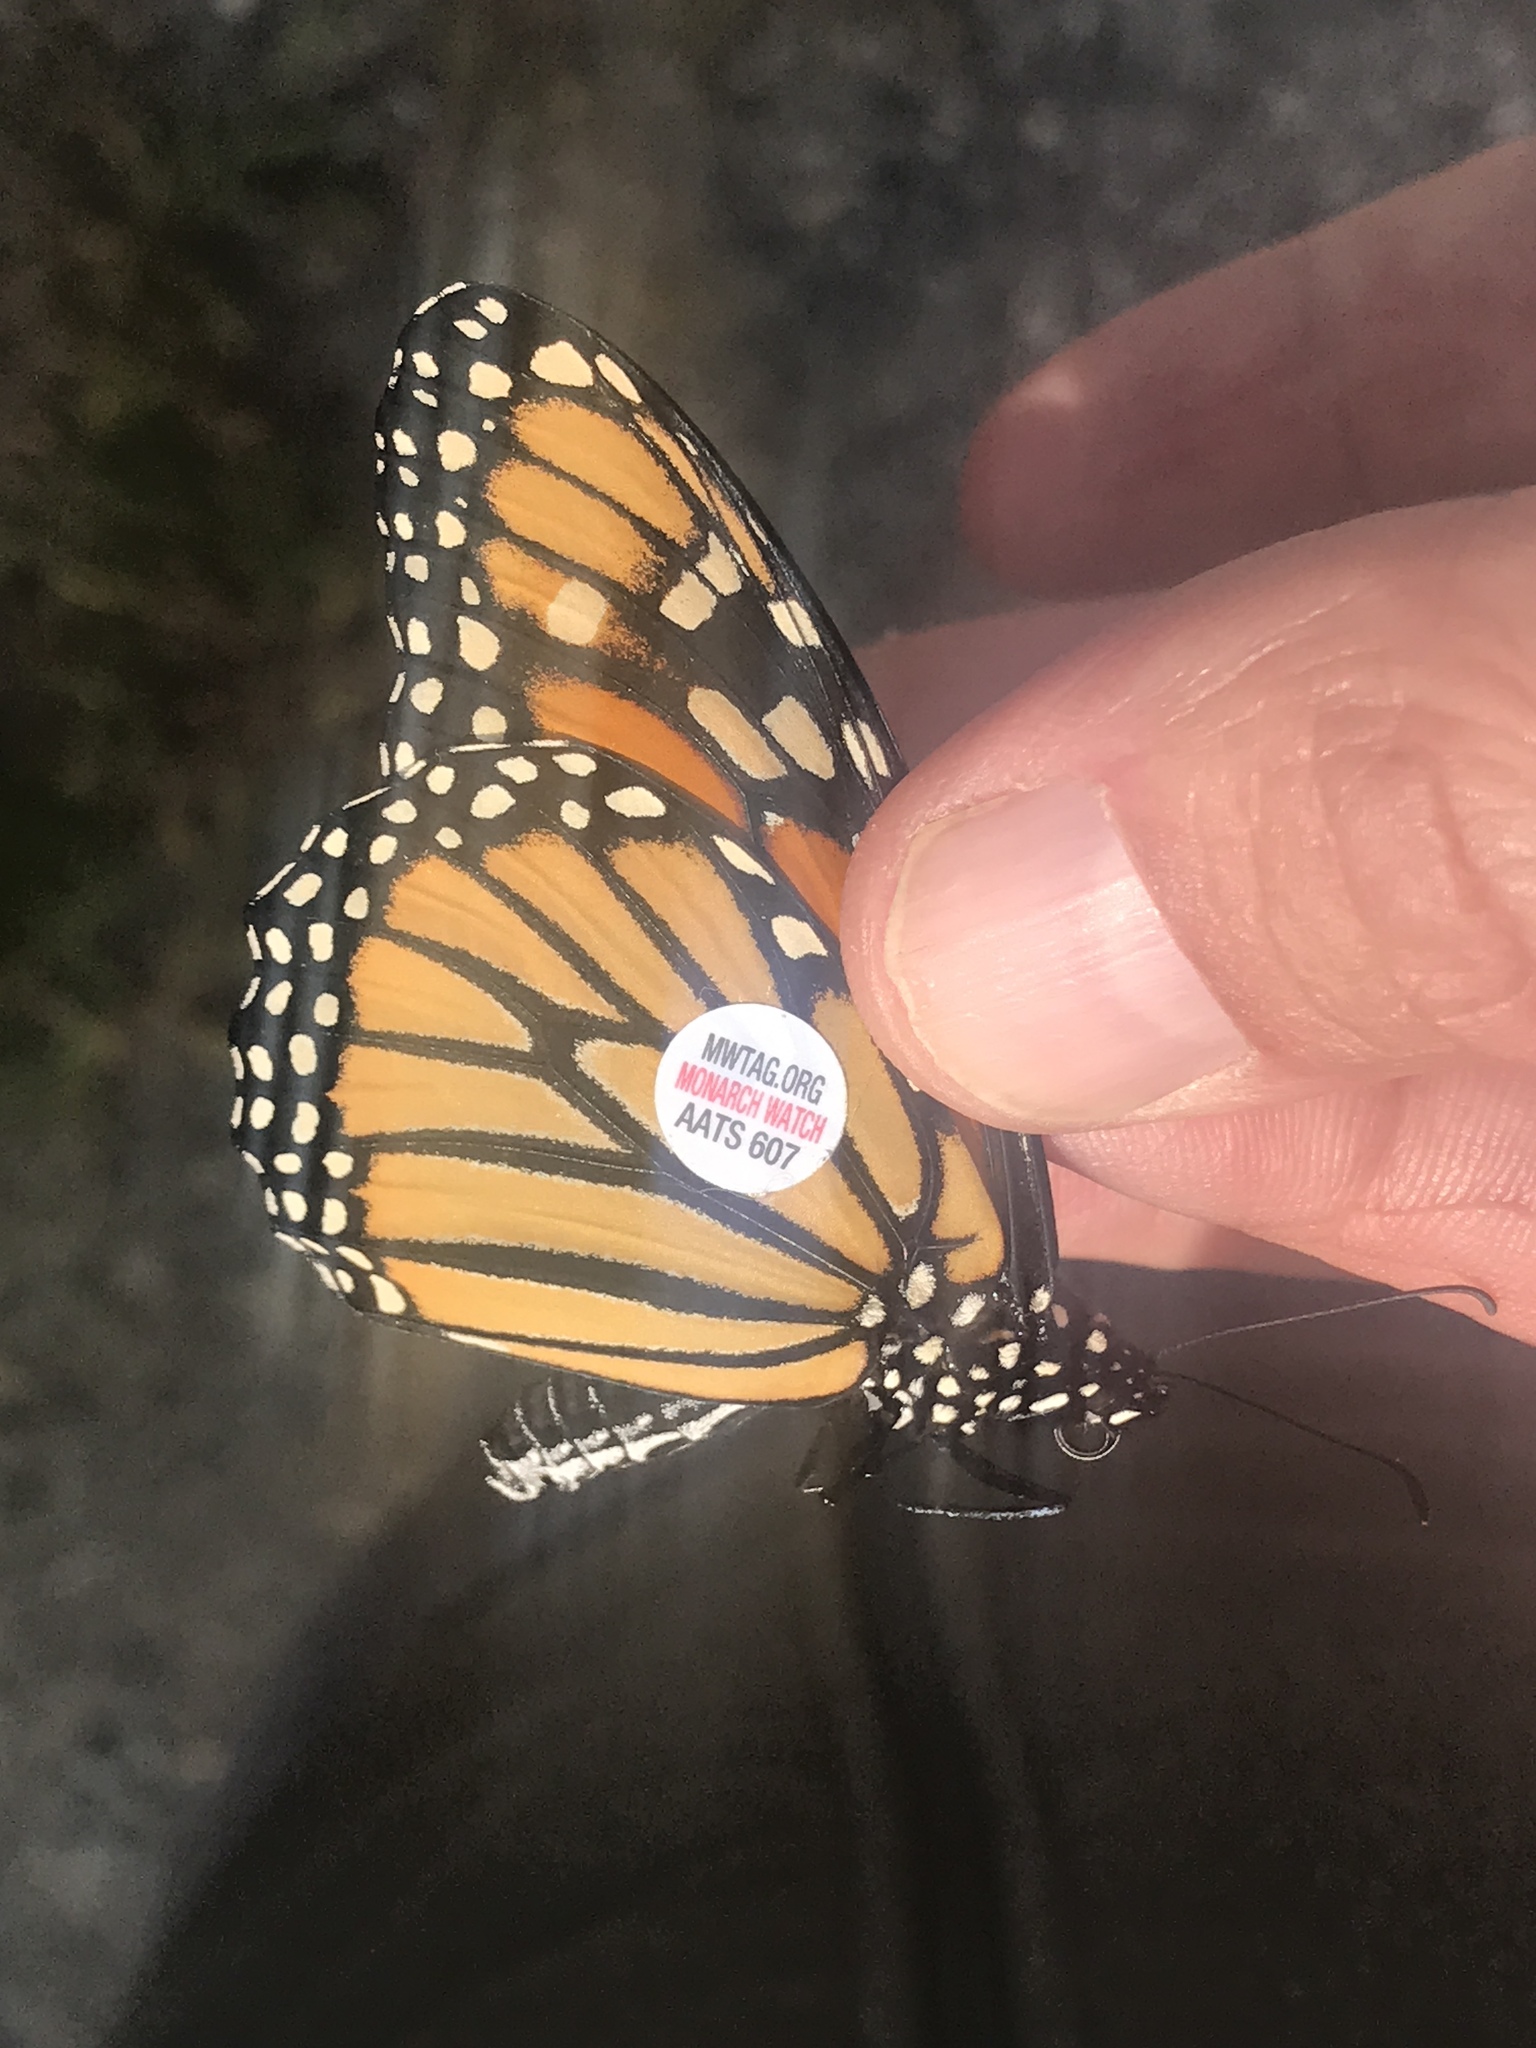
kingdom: Animalia
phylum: Arthropoda
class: Insecta
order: Lepidoptera
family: Nymphalidae
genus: Danaus
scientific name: Danaus plexippus
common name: Monarch
